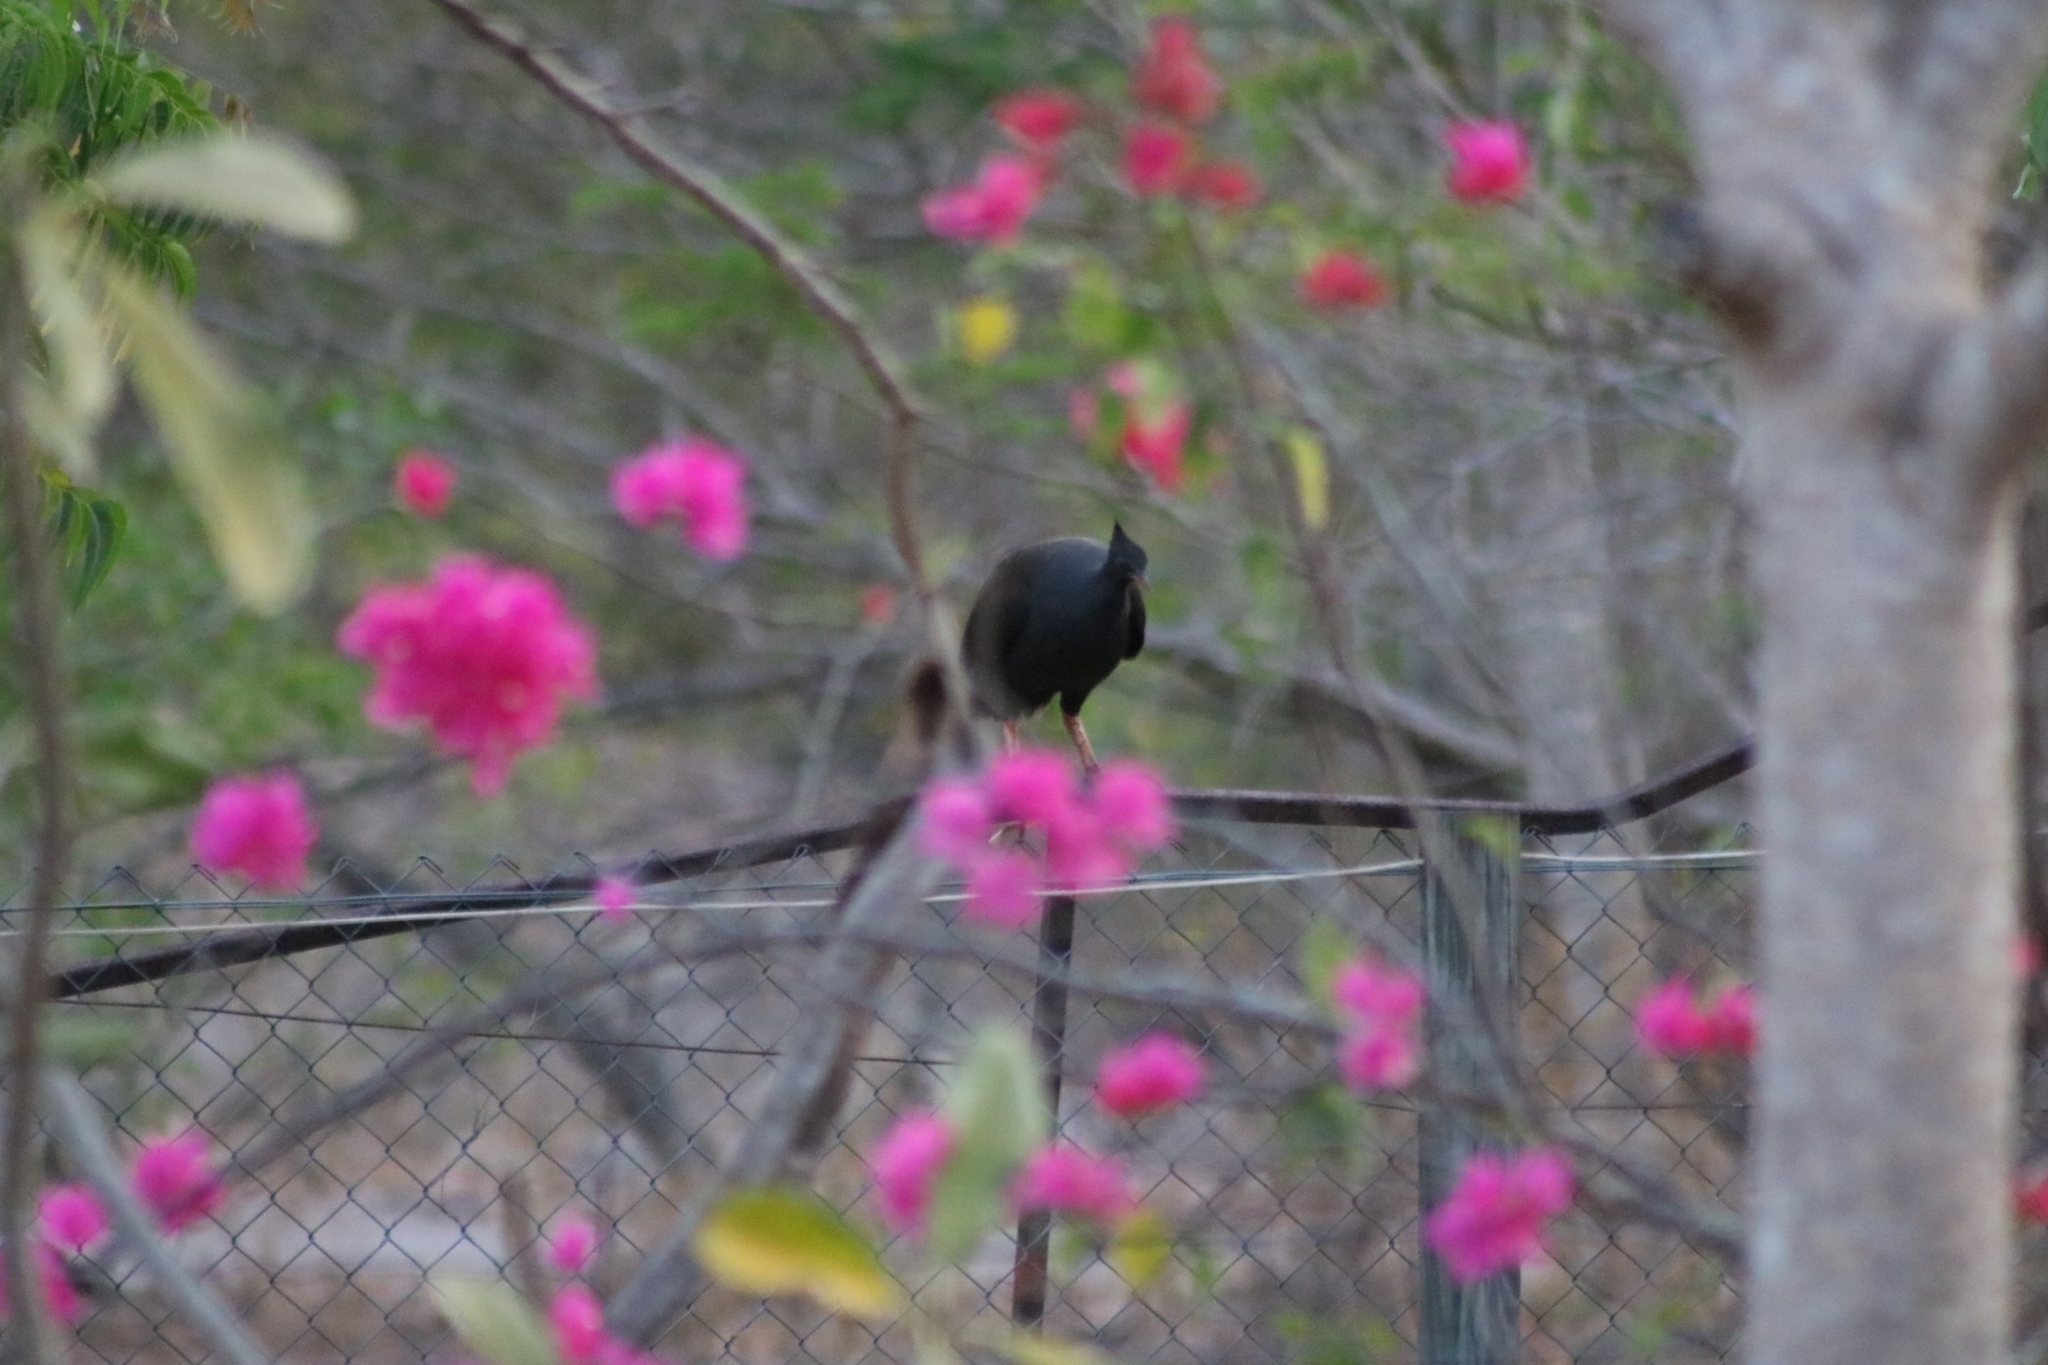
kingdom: Animalia
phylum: Chordata
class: Aves
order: Galliformes
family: Megapodiidae
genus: Megapodius
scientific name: Megapodius reinwardt
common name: Orange-footed scrubfowl
